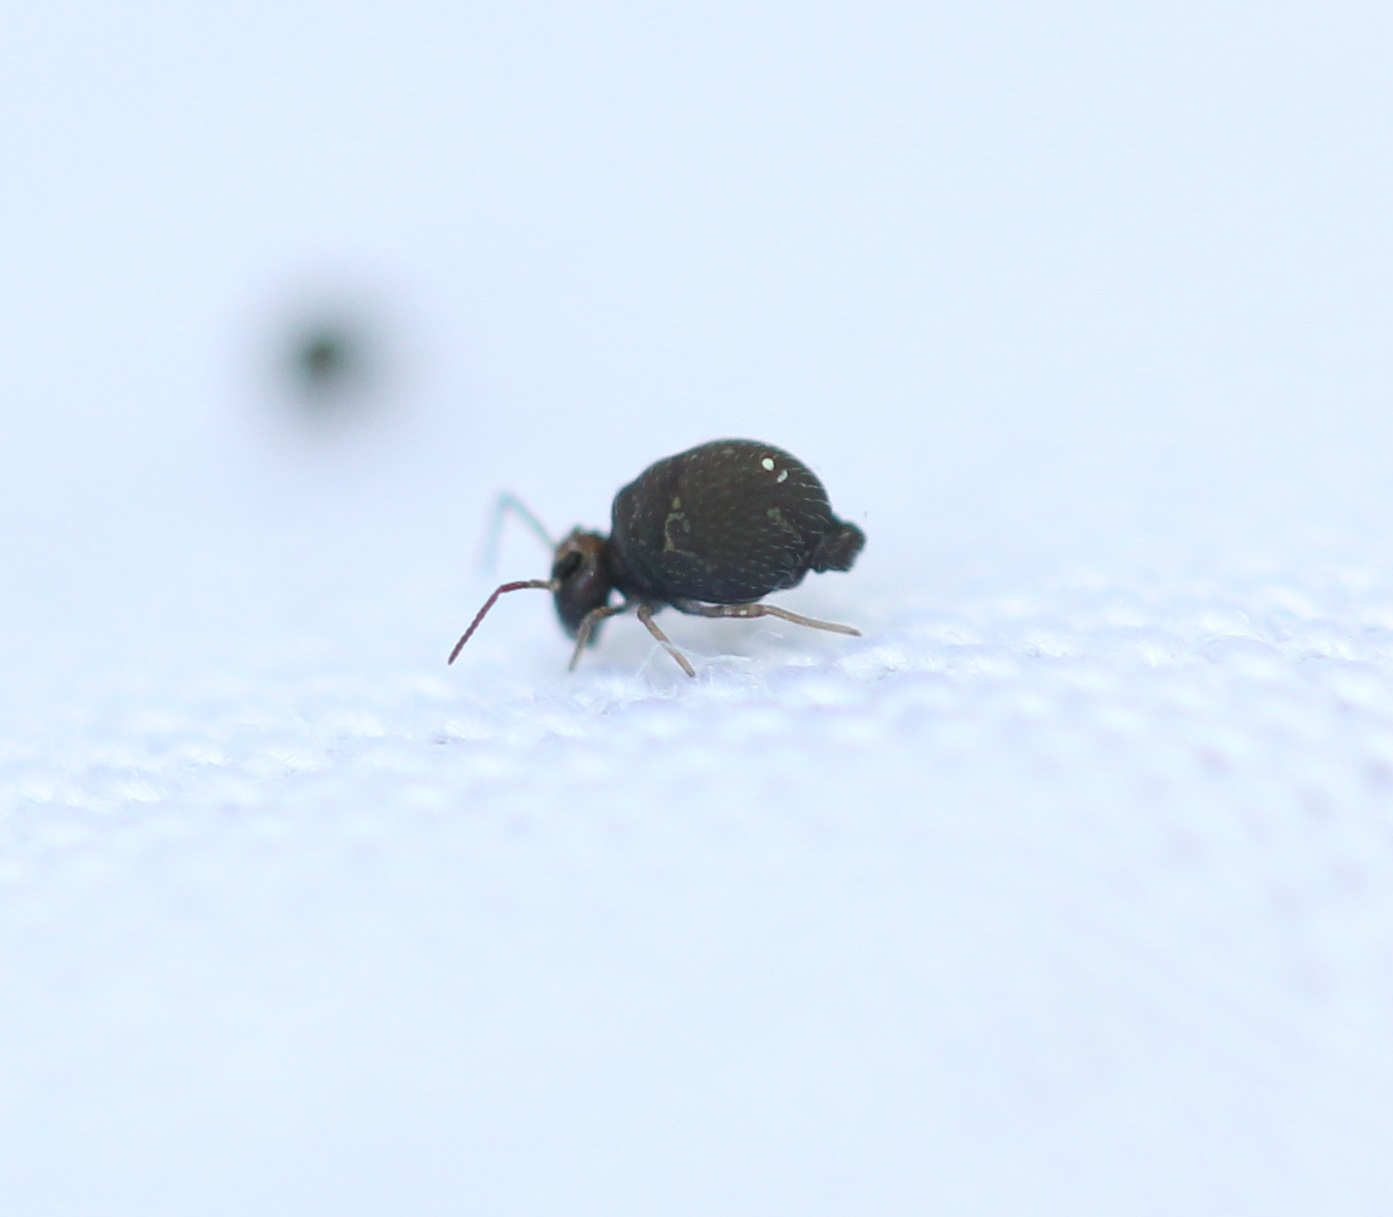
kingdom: Animalia
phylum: Arthropoda
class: Collembola
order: Symphypleona
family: Bourletiellidae
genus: Bourletiella
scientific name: Bourletiella hortensis
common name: Garden springtail
